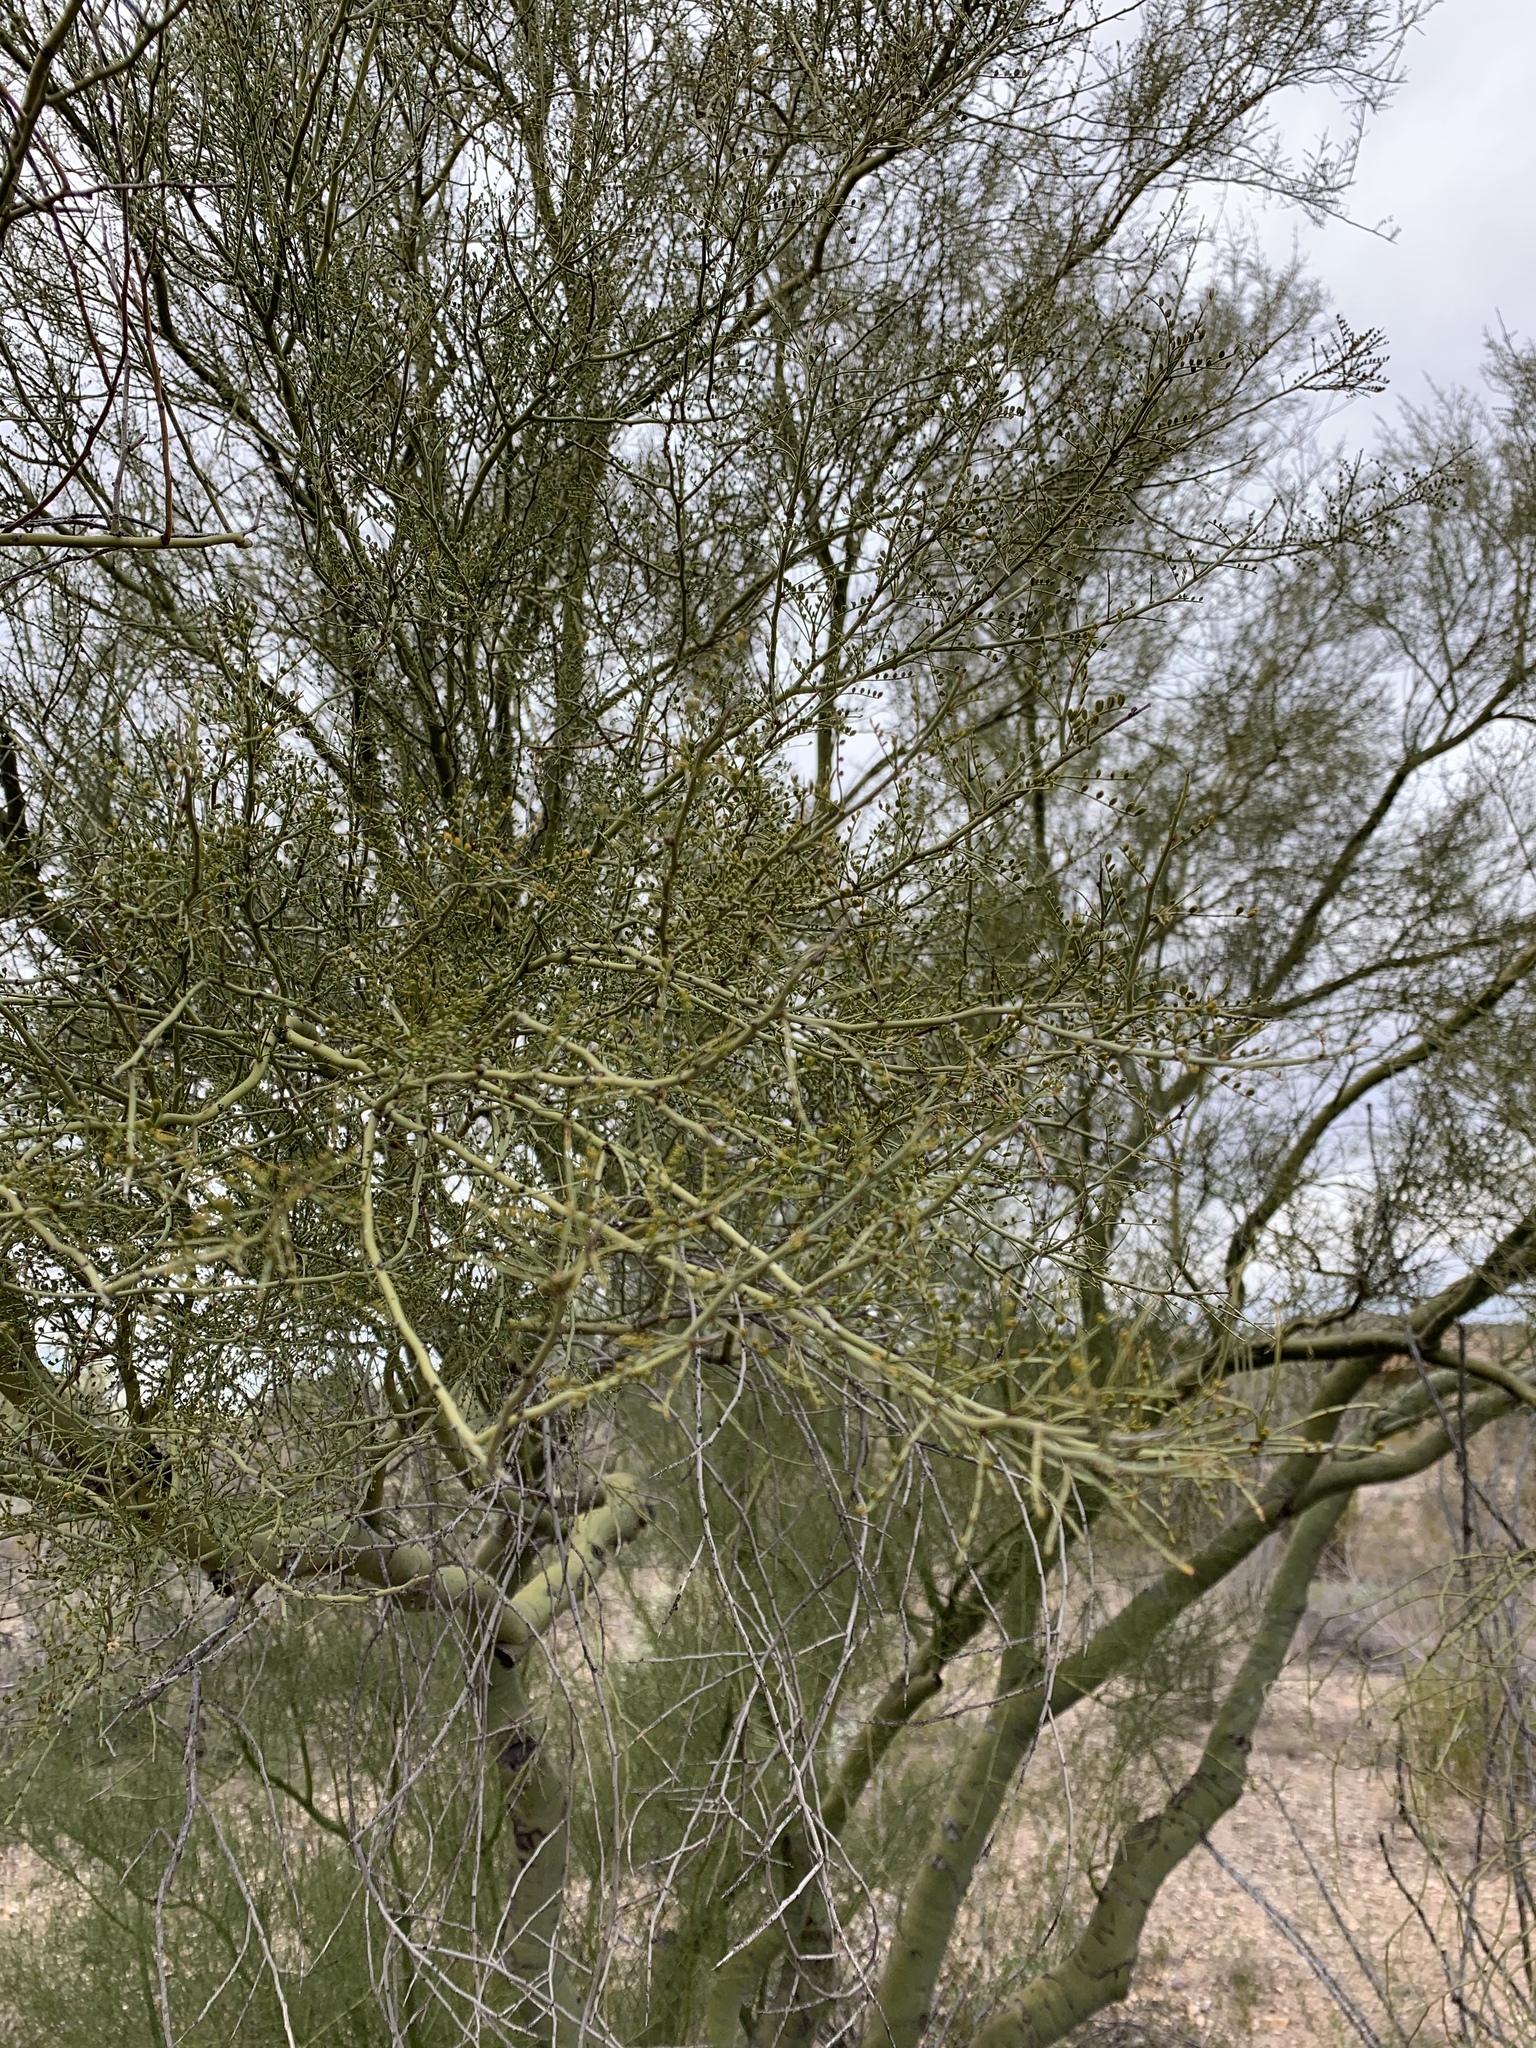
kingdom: Plantae
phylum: Tracheophyta
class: Magnoliopsida
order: Fabales
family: Fabaceae
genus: Parkinsonia
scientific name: Parkinsonia microphylla
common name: Yellow paloverde
